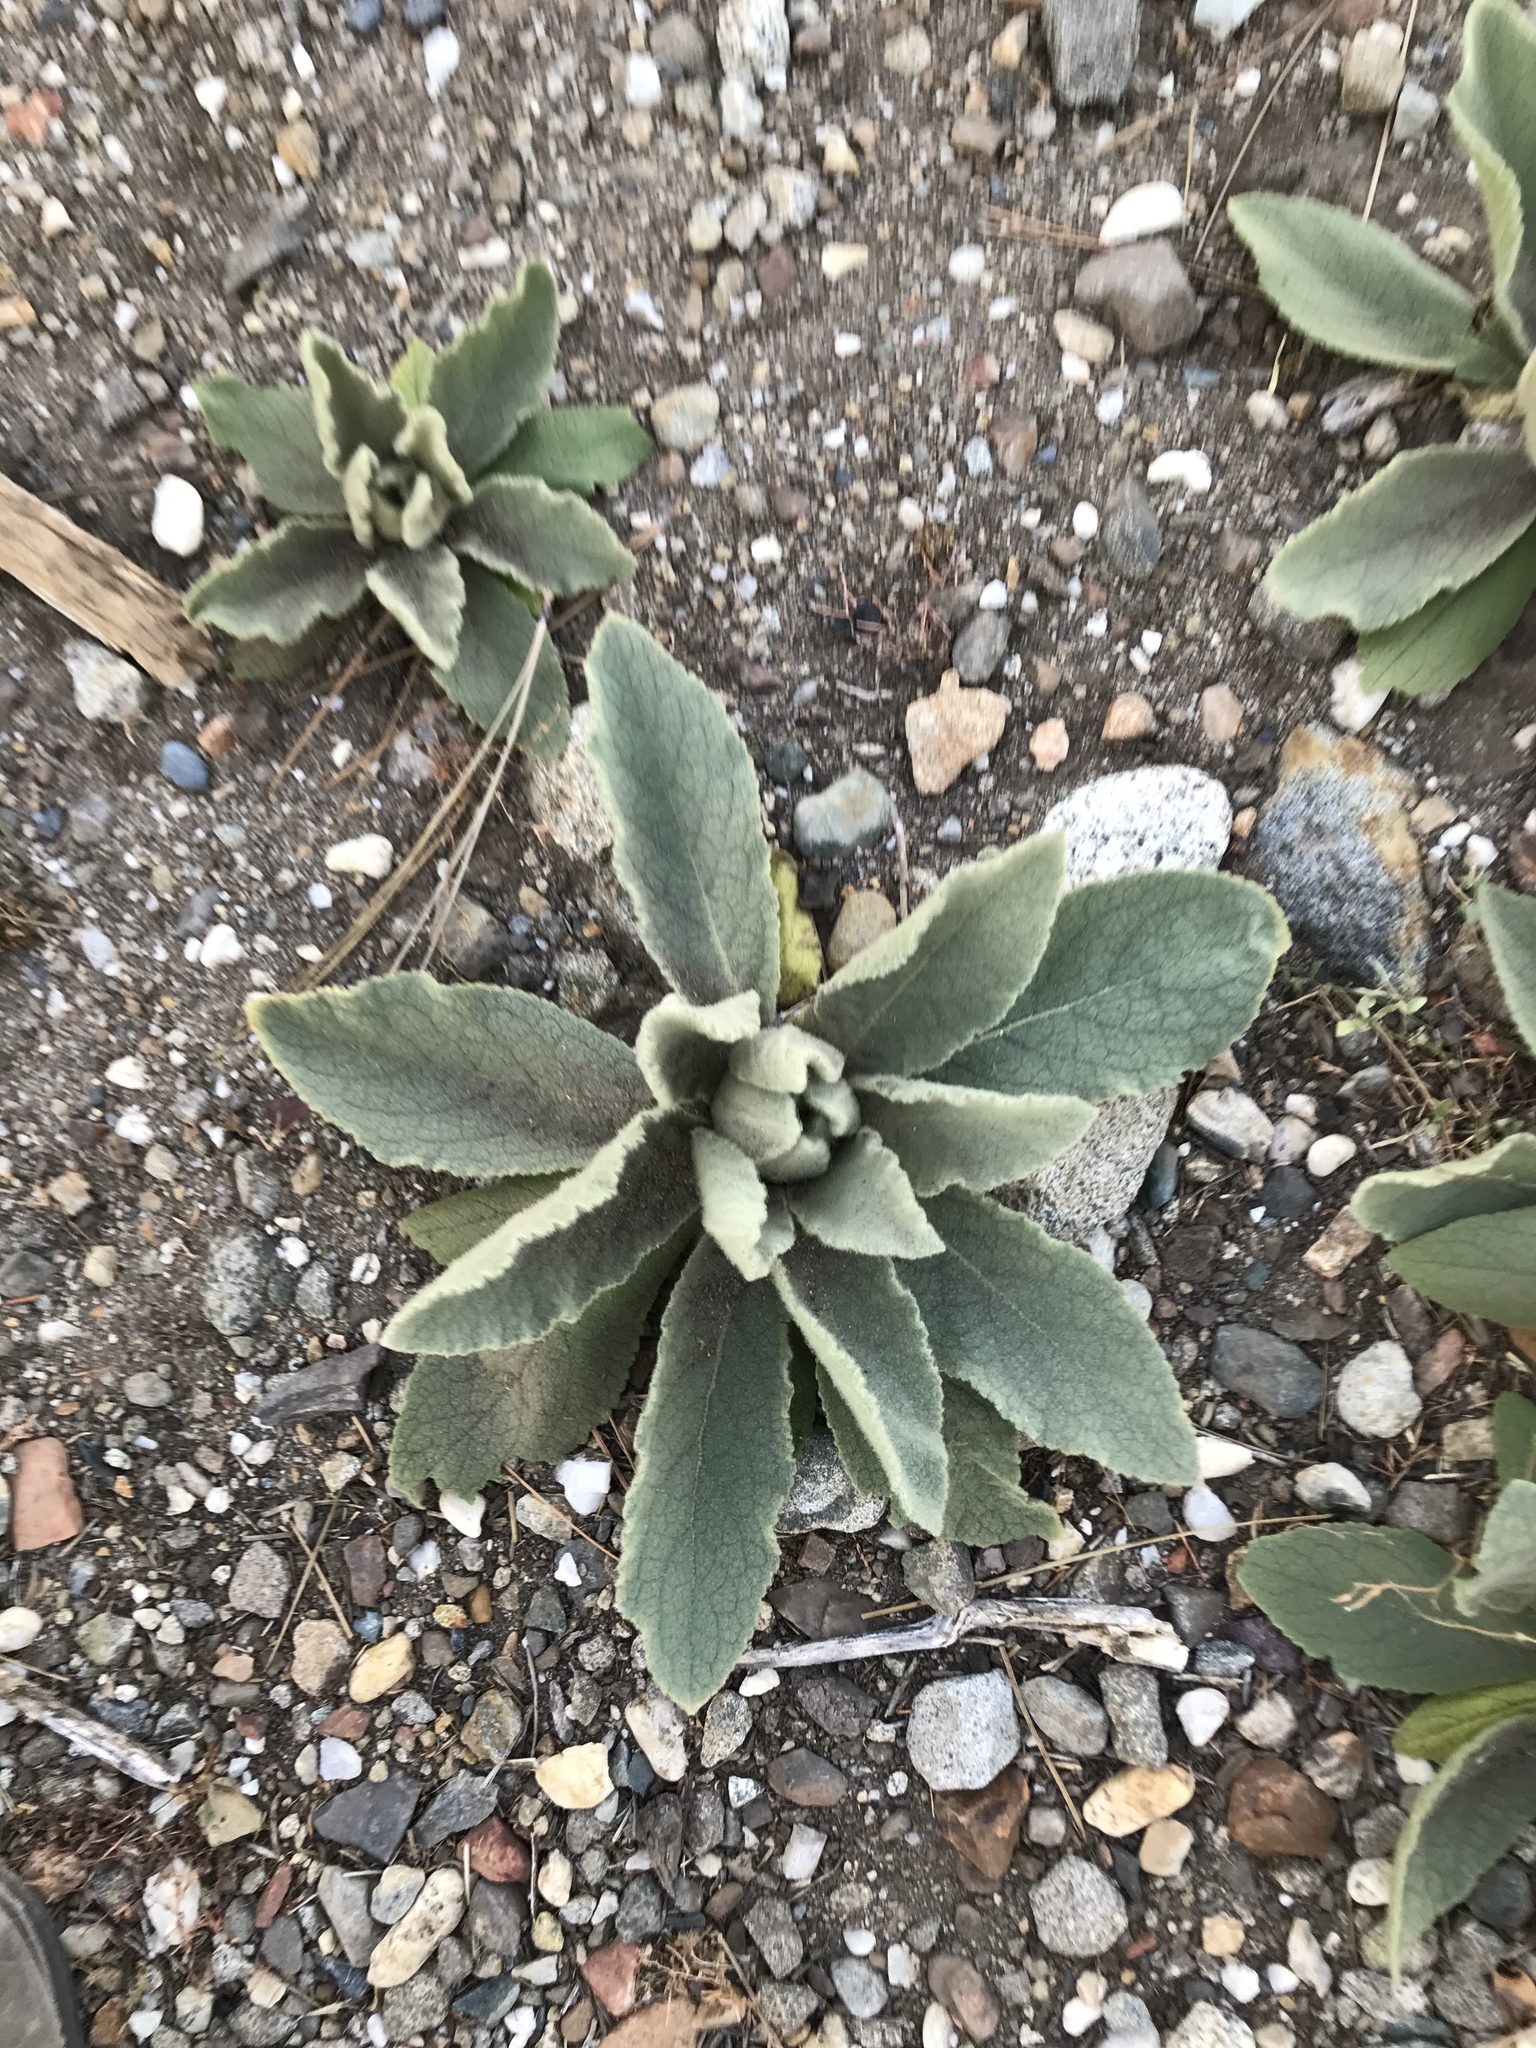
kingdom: Plantae
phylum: Tracheophyta
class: Magnoliopsida
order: Lamiales
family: Scrophulariaceae
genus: Verbascum
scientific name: Verbascum thapsus
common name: Common mullein
